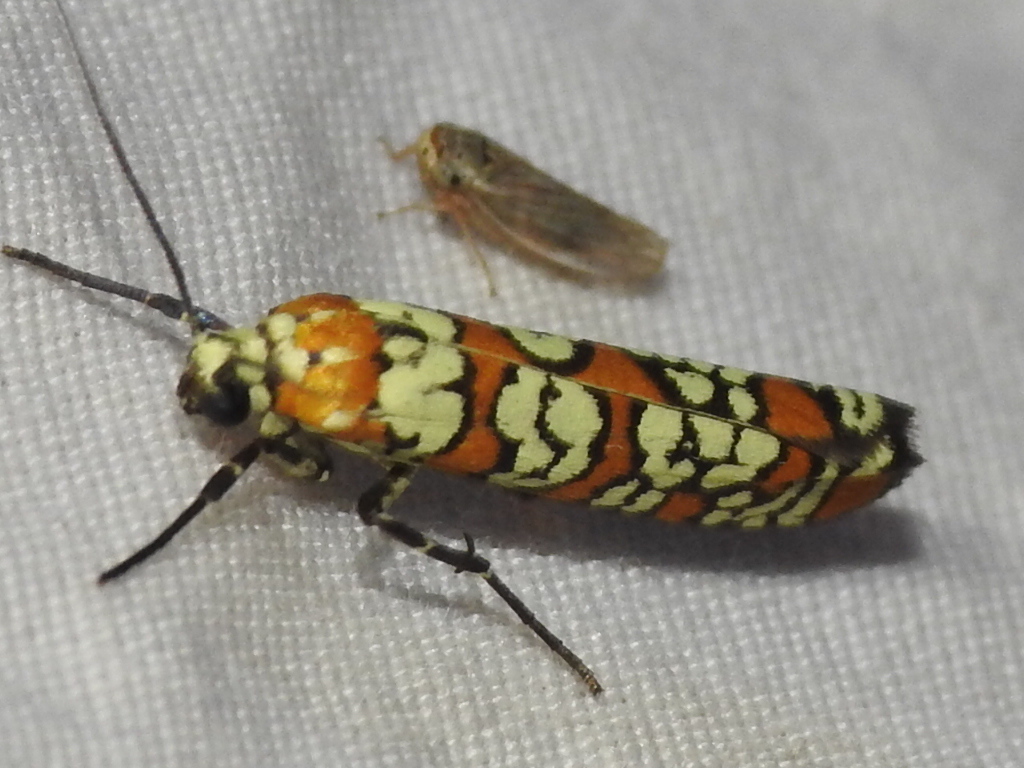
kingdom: Animalia
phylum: Arthropoda
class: Insecta
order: Lepidoptera
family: Attevidae
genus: Atteva
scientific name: Atteva punctella
